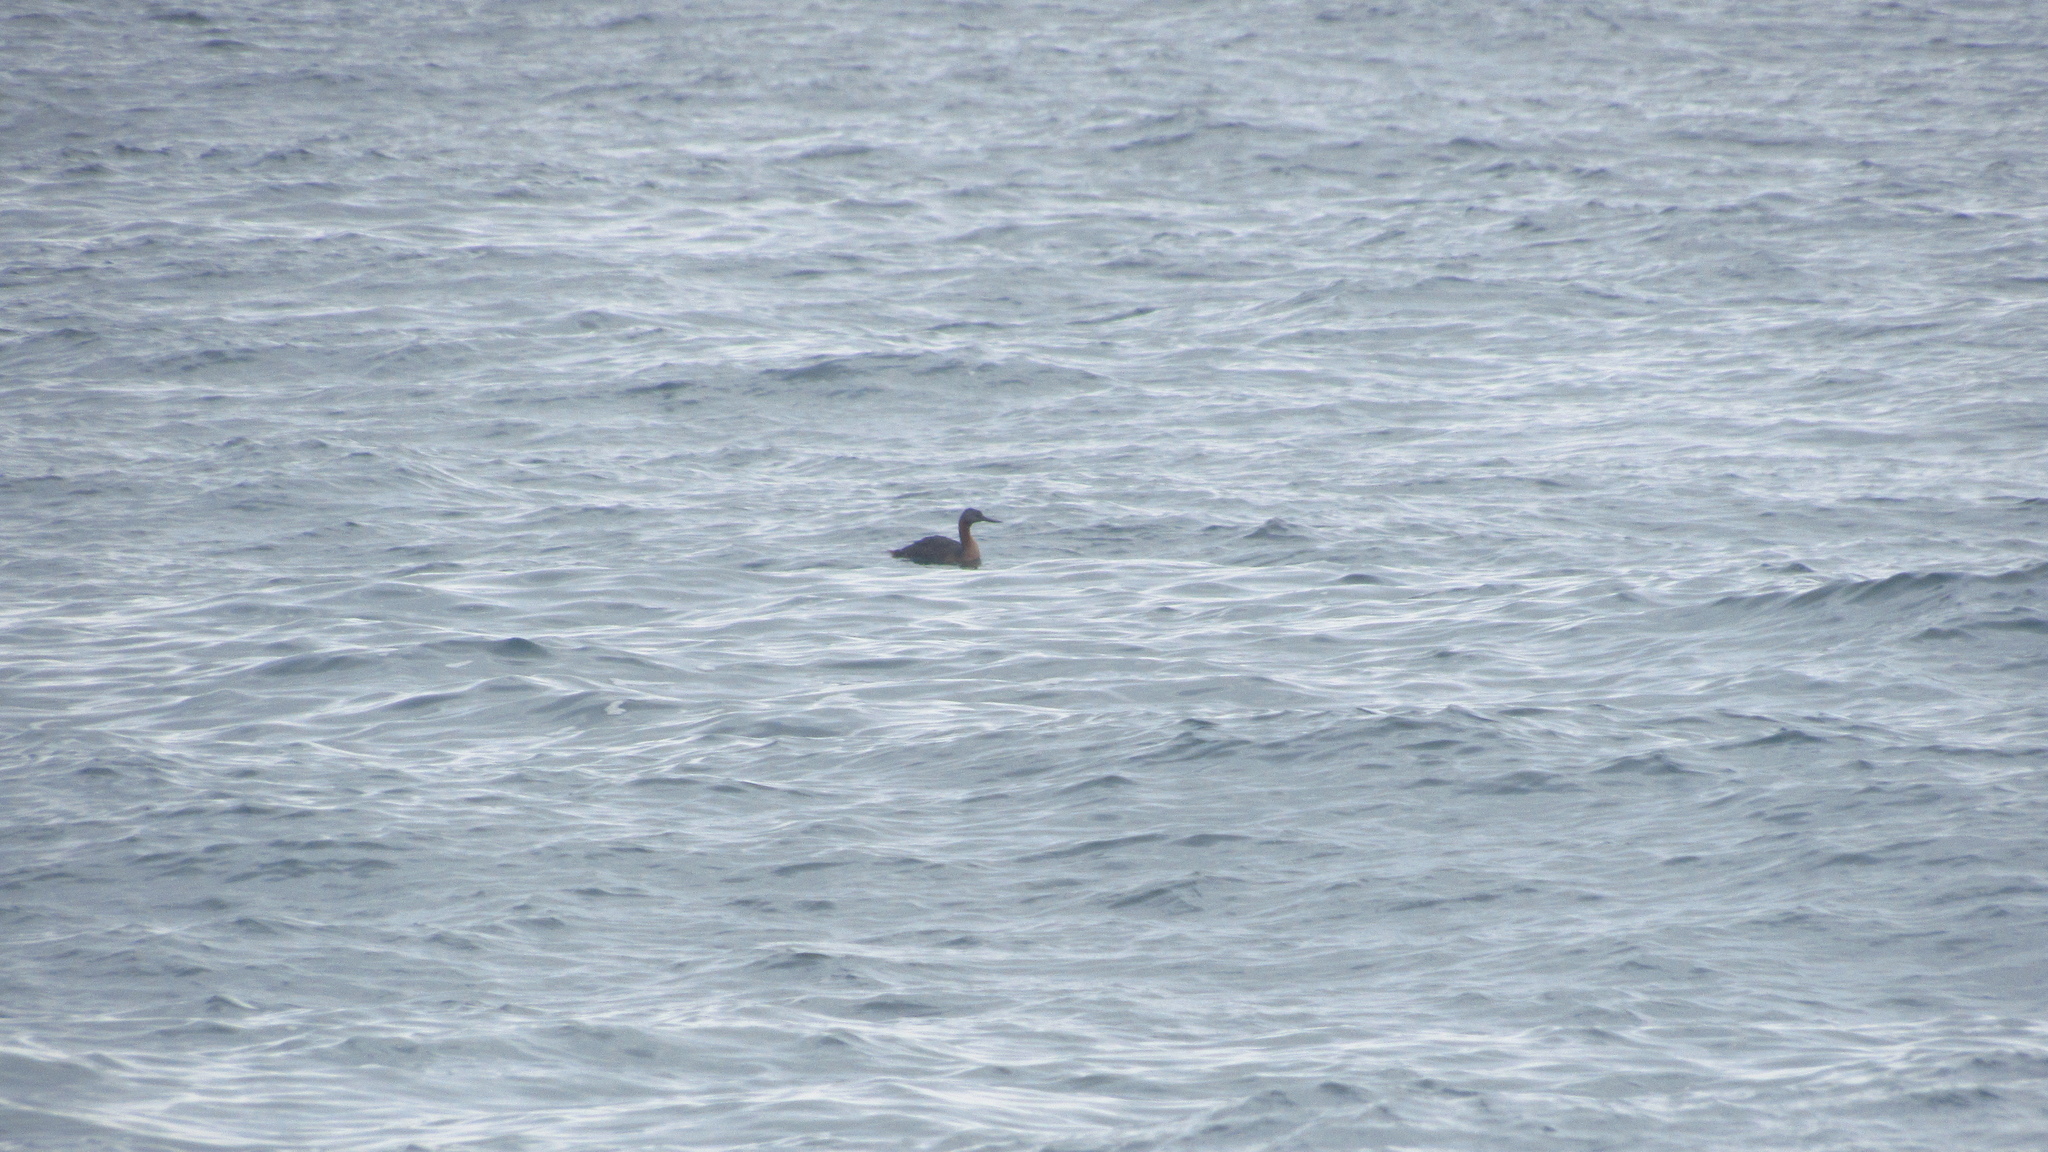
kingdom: Animalia
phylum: Chordata
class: Aves
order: Podicipediformes
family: Podicipedidae
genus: Podiceps
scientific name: Podiceps major
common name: Great grebe
